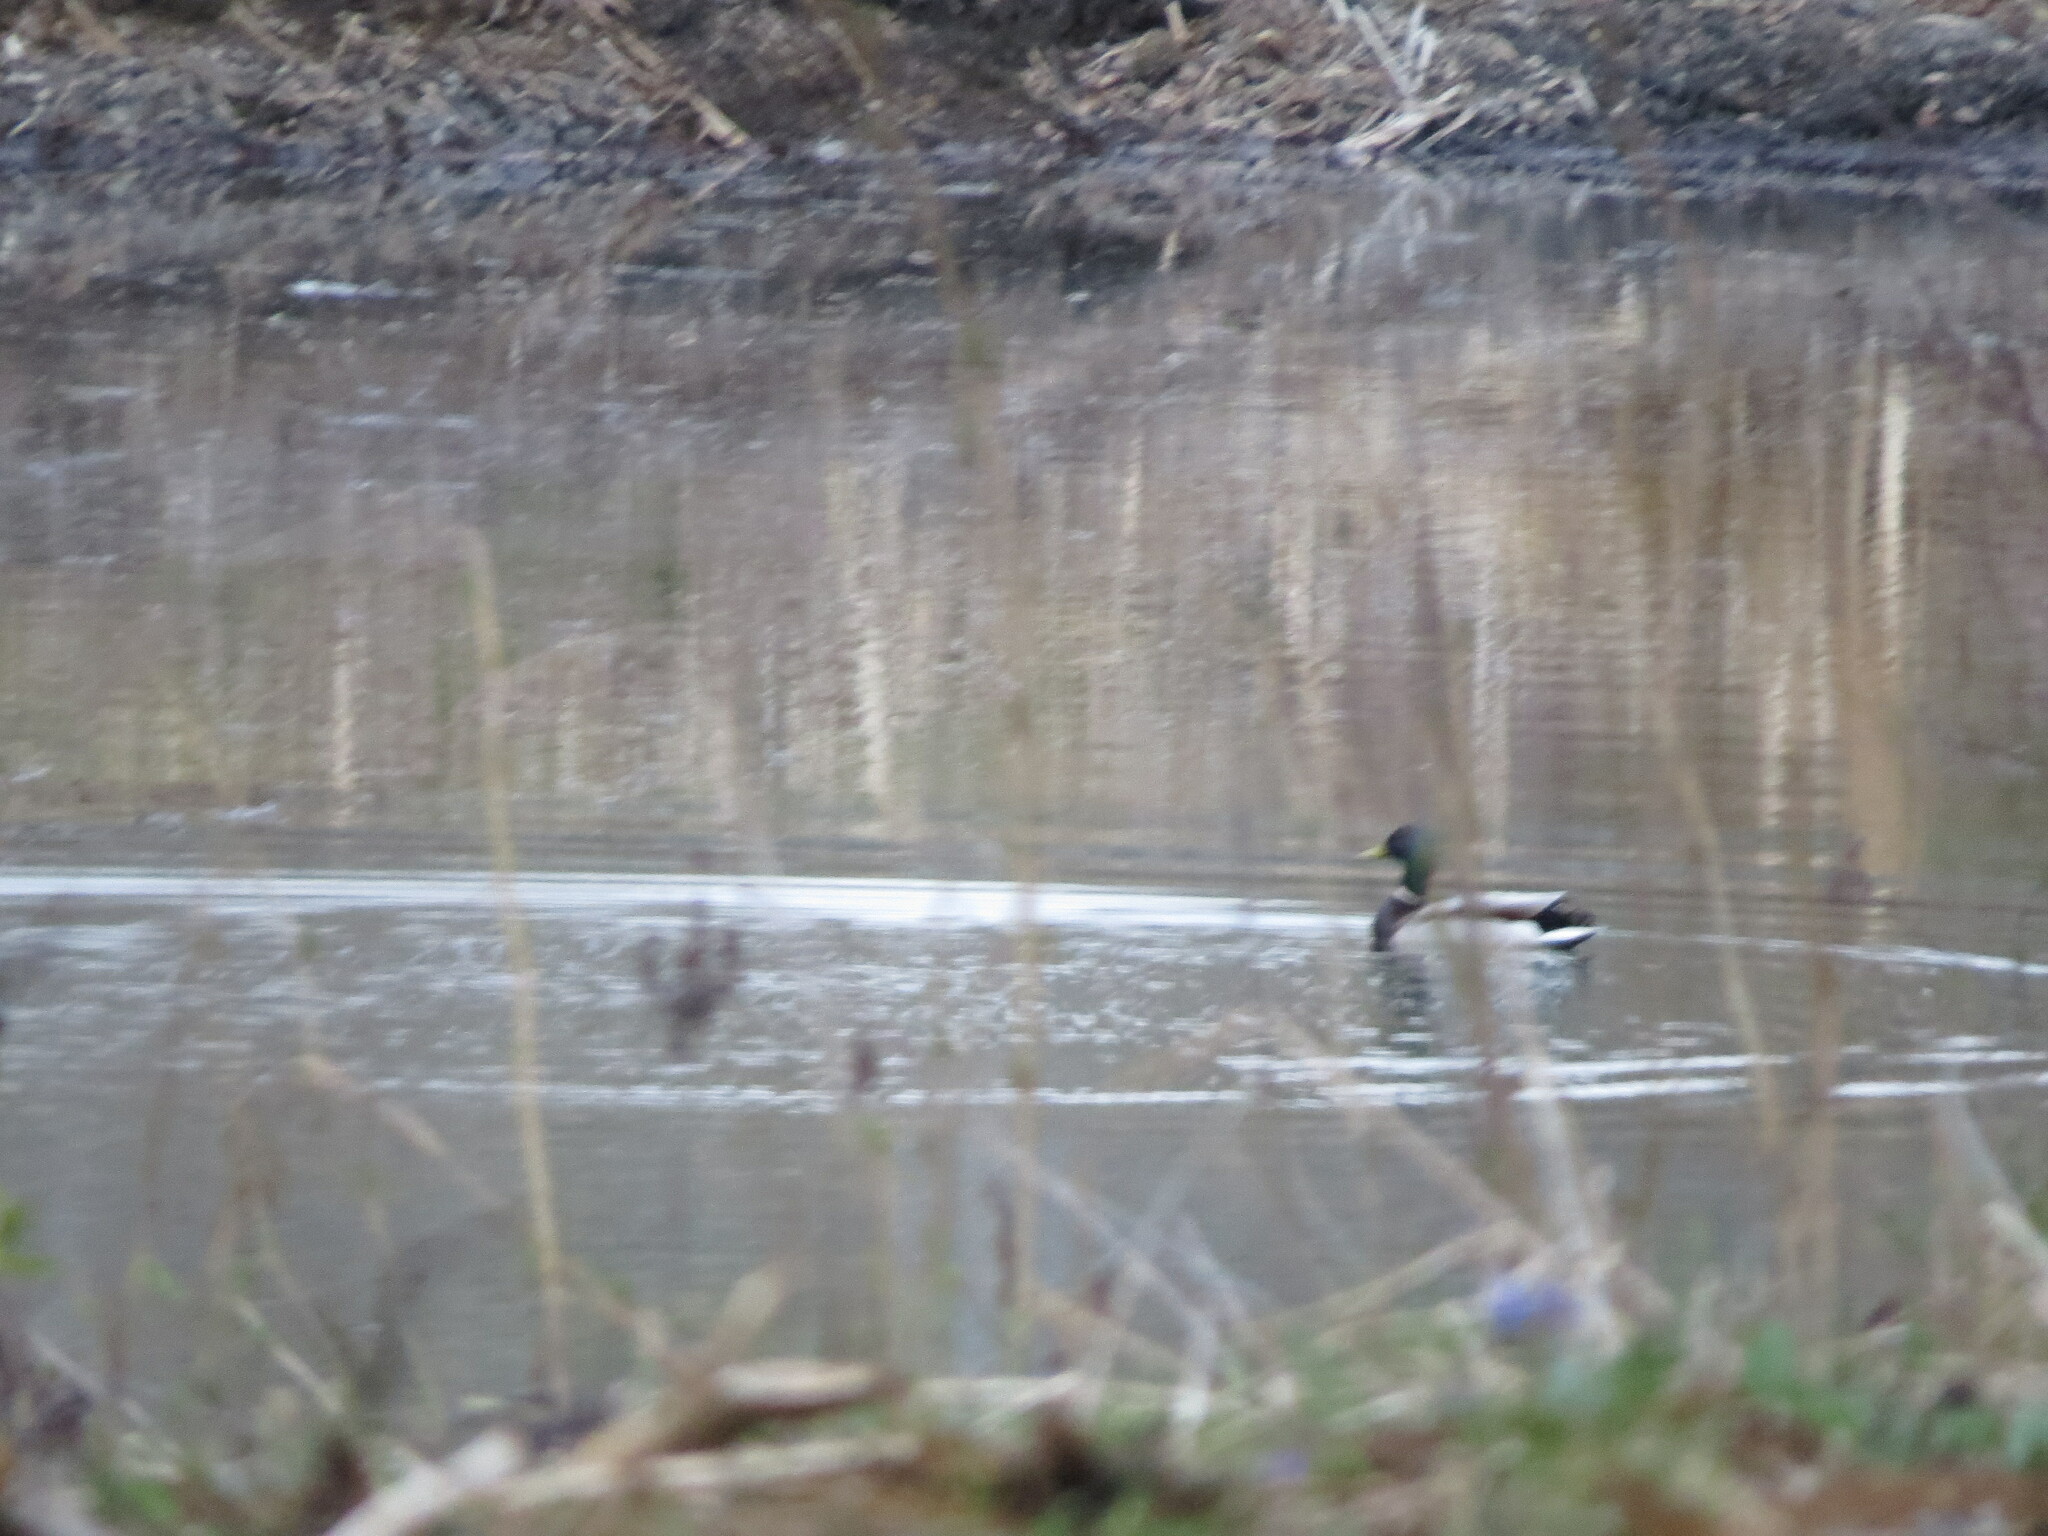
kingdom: Animalia
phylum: Chordata
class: Aves
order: Anseriformes
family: Anatidae
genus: Anas
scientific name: Anas platyrhynchos
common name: Mallard
